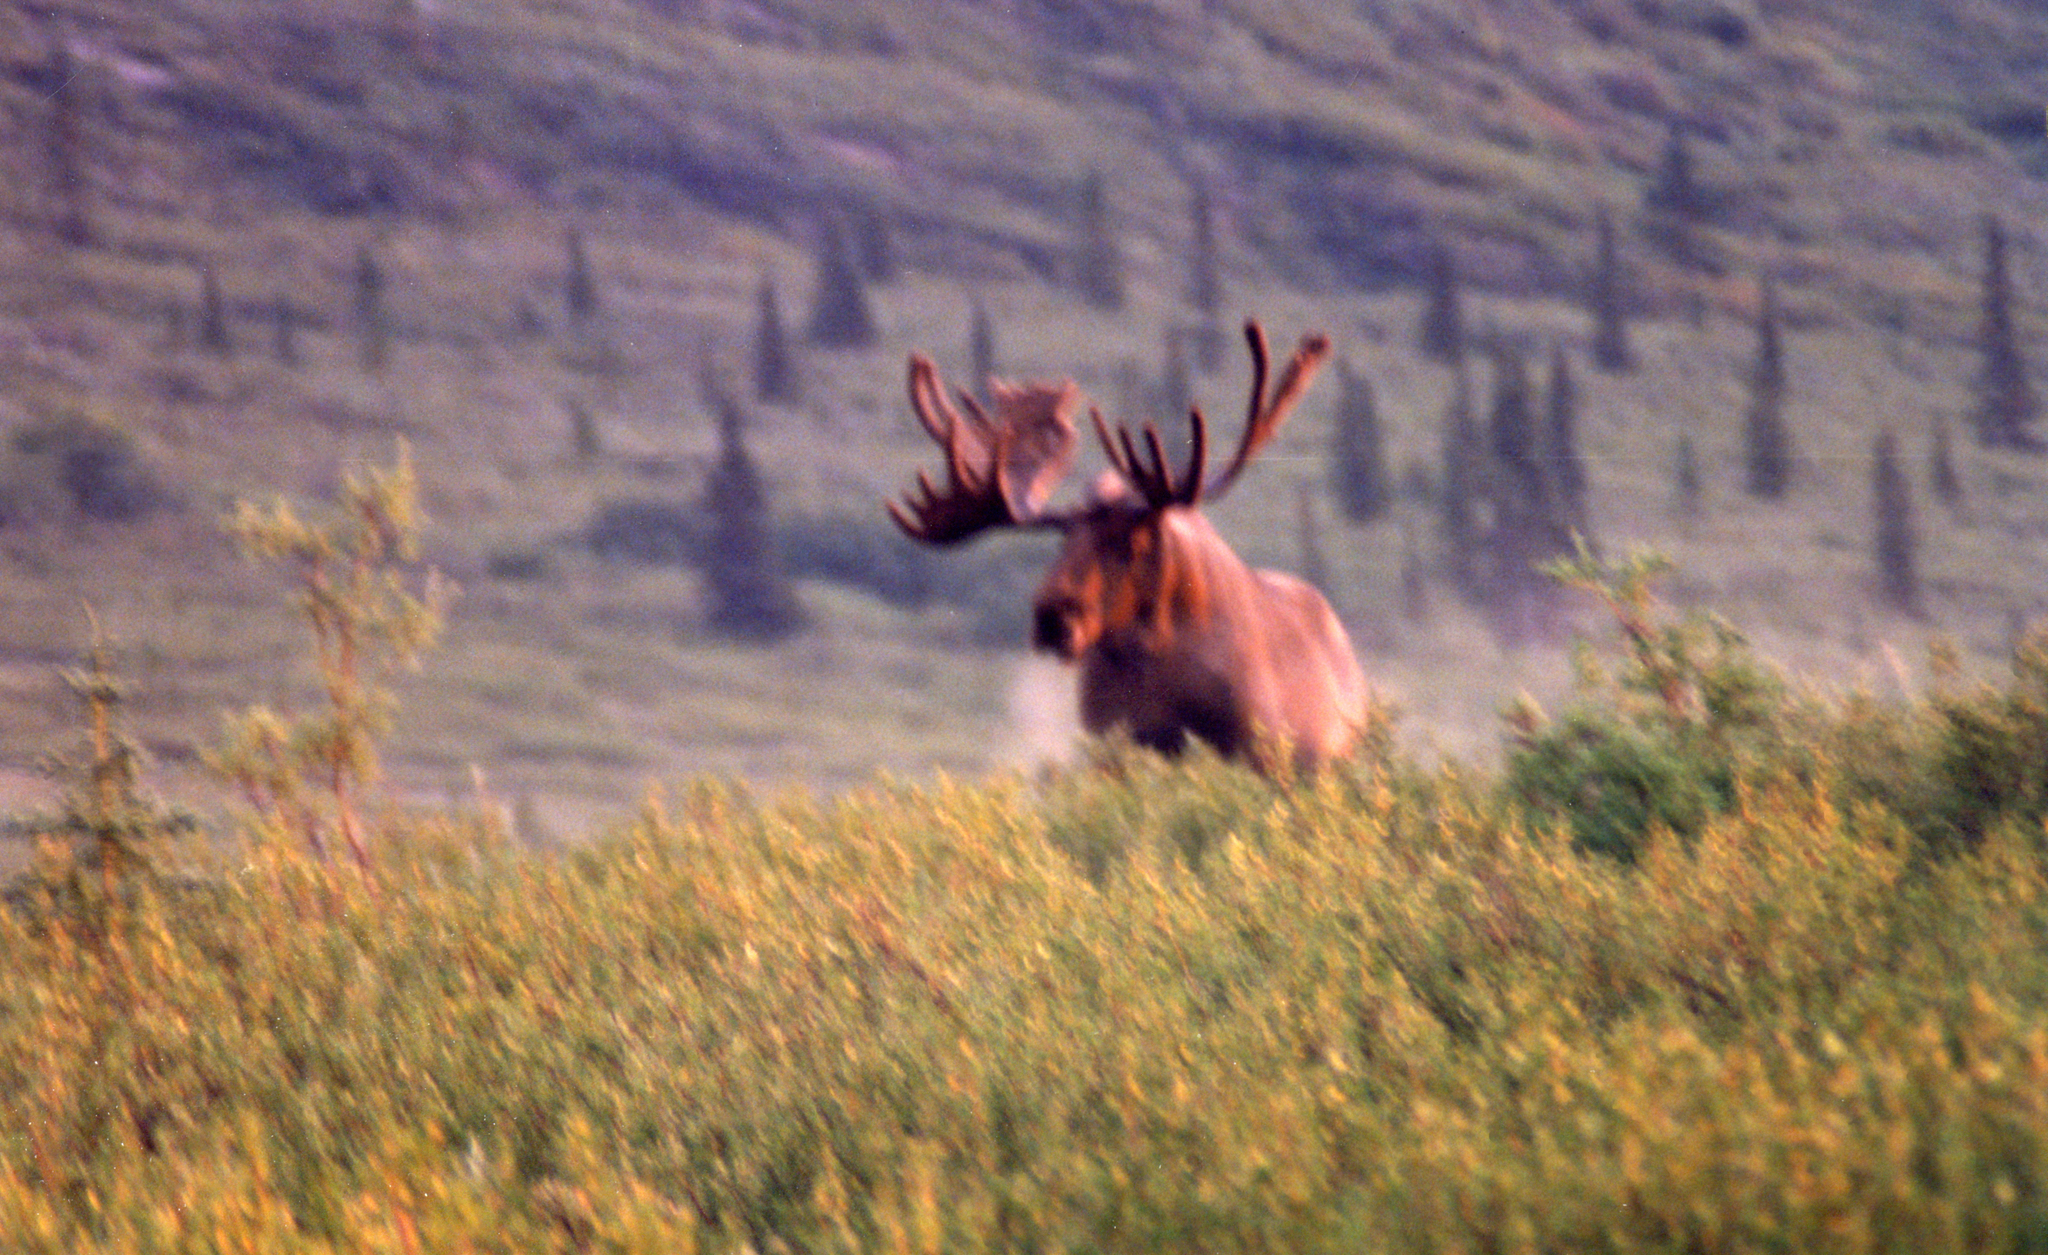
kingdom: Animalia
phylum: Chordata
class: Mammalia
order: Artiodactyla
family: Cervidae
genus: Alces
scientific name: Alces alces
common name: Moose
